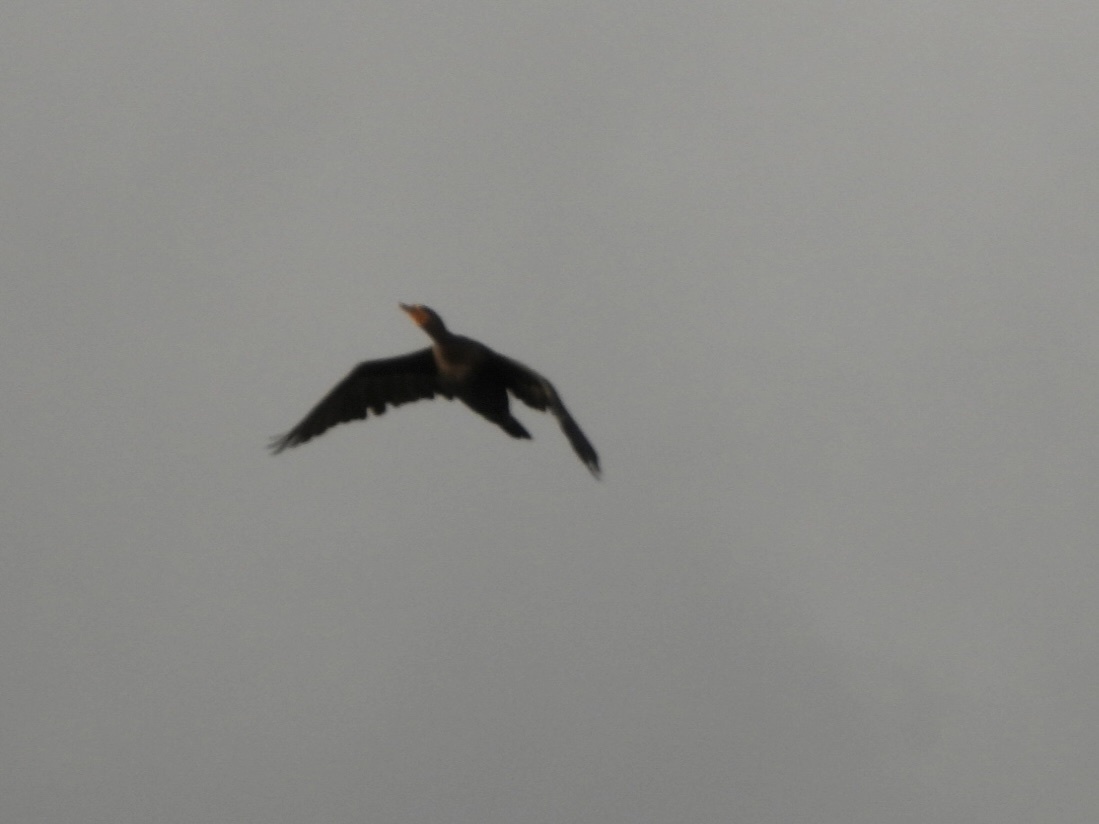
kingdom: Animalia
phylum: Chordata
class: Aves
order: Suliformes
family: Phalacrocoracidae
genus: Phalacrocorax
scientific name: Phalacrocorax auritus
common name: Double-crested cormorant
